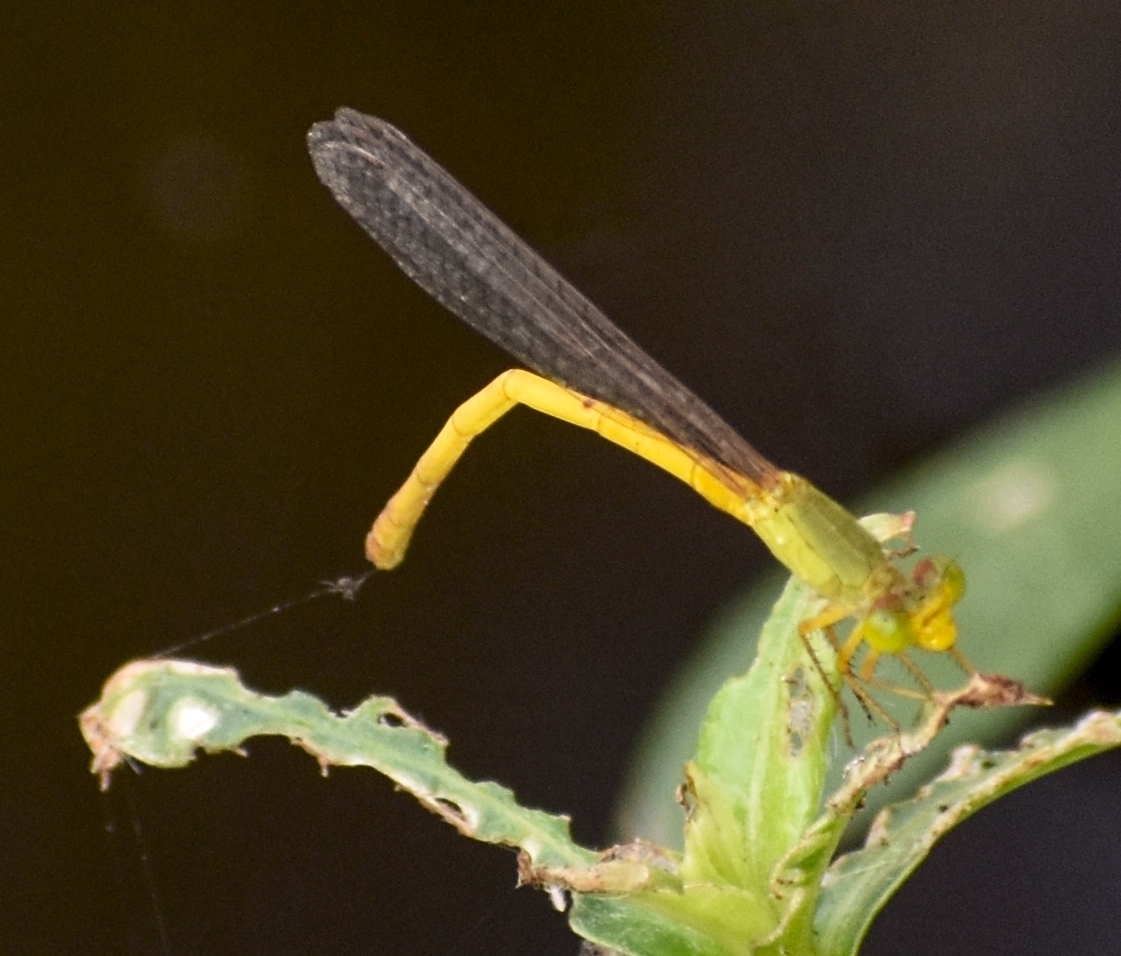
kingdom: Animalia
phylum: Arthropoda
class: Insecta
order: Odonata
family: Coenagrionidae
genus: Ceriagrion
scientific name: Ceriagrion coromandelianum
